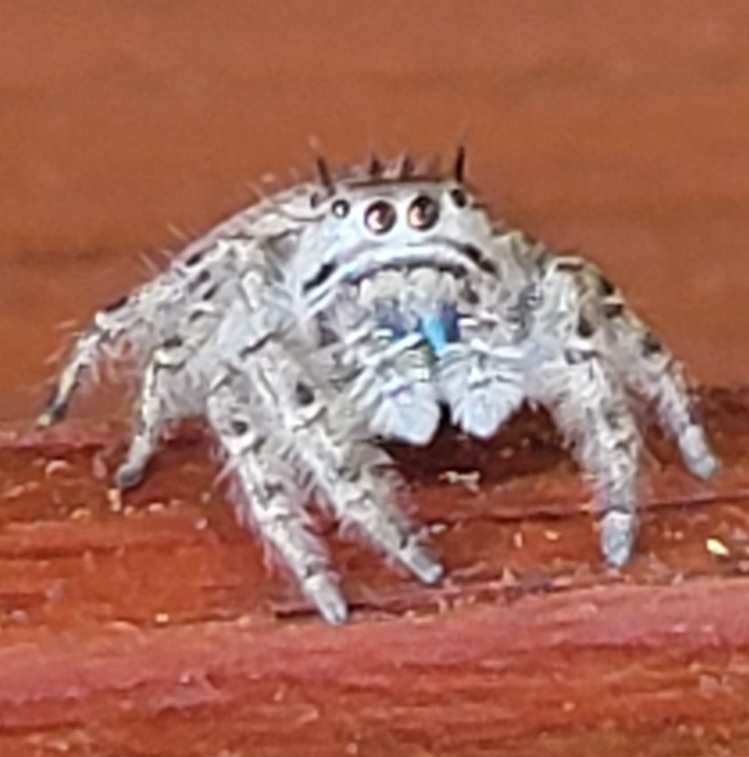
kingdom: Animalia
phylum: Arthropoda
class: Arachnida
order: Araneae
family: Salticidae
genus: Phidippus
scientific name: Phidippus putnami
